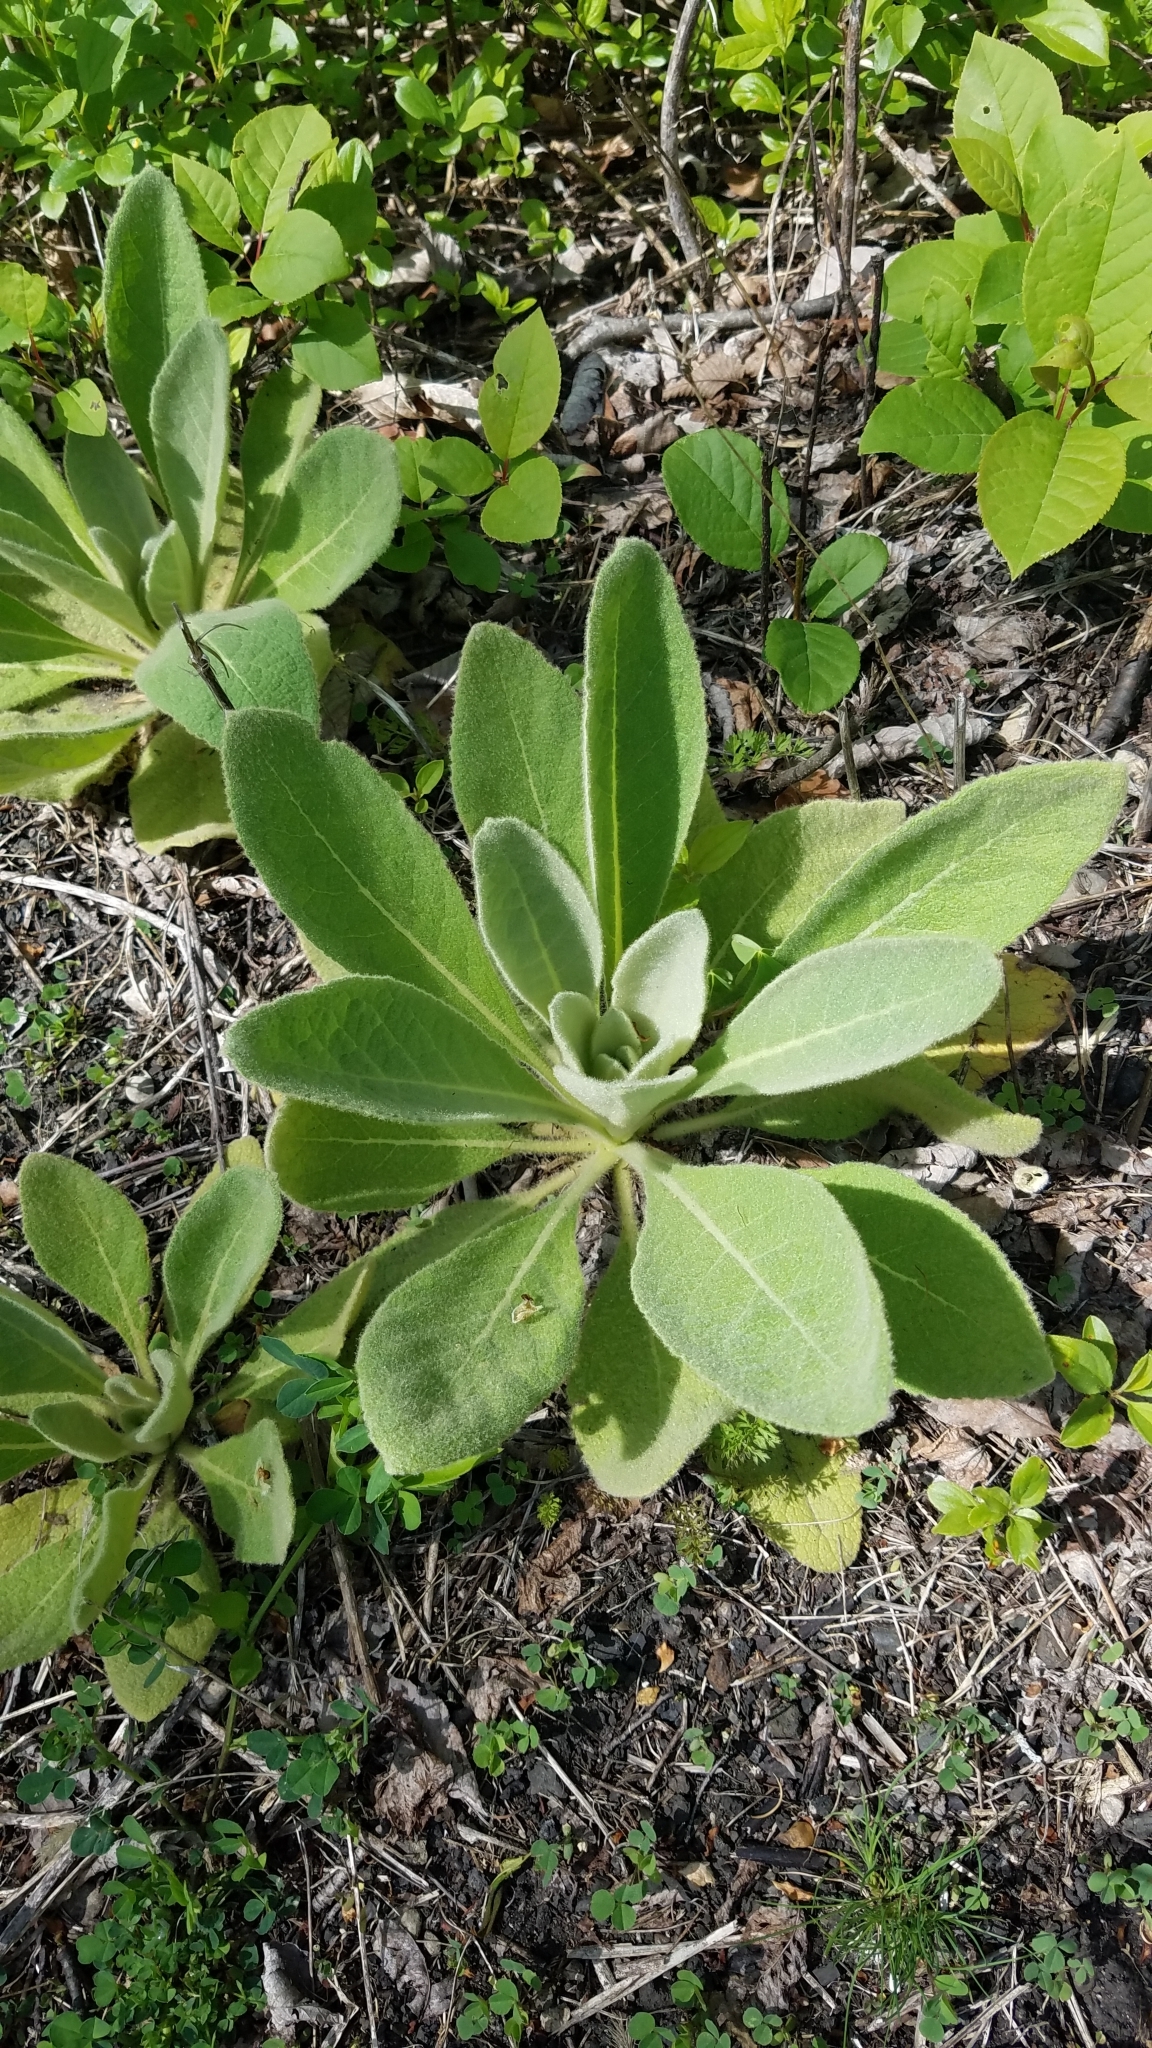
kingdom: Plantae
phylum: Tracheophyta
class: Magnoliopsida
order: Lamiales
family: Scrophulariaceae
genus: Verbascum
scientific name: Verbascum thapsus
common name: Common mullein
